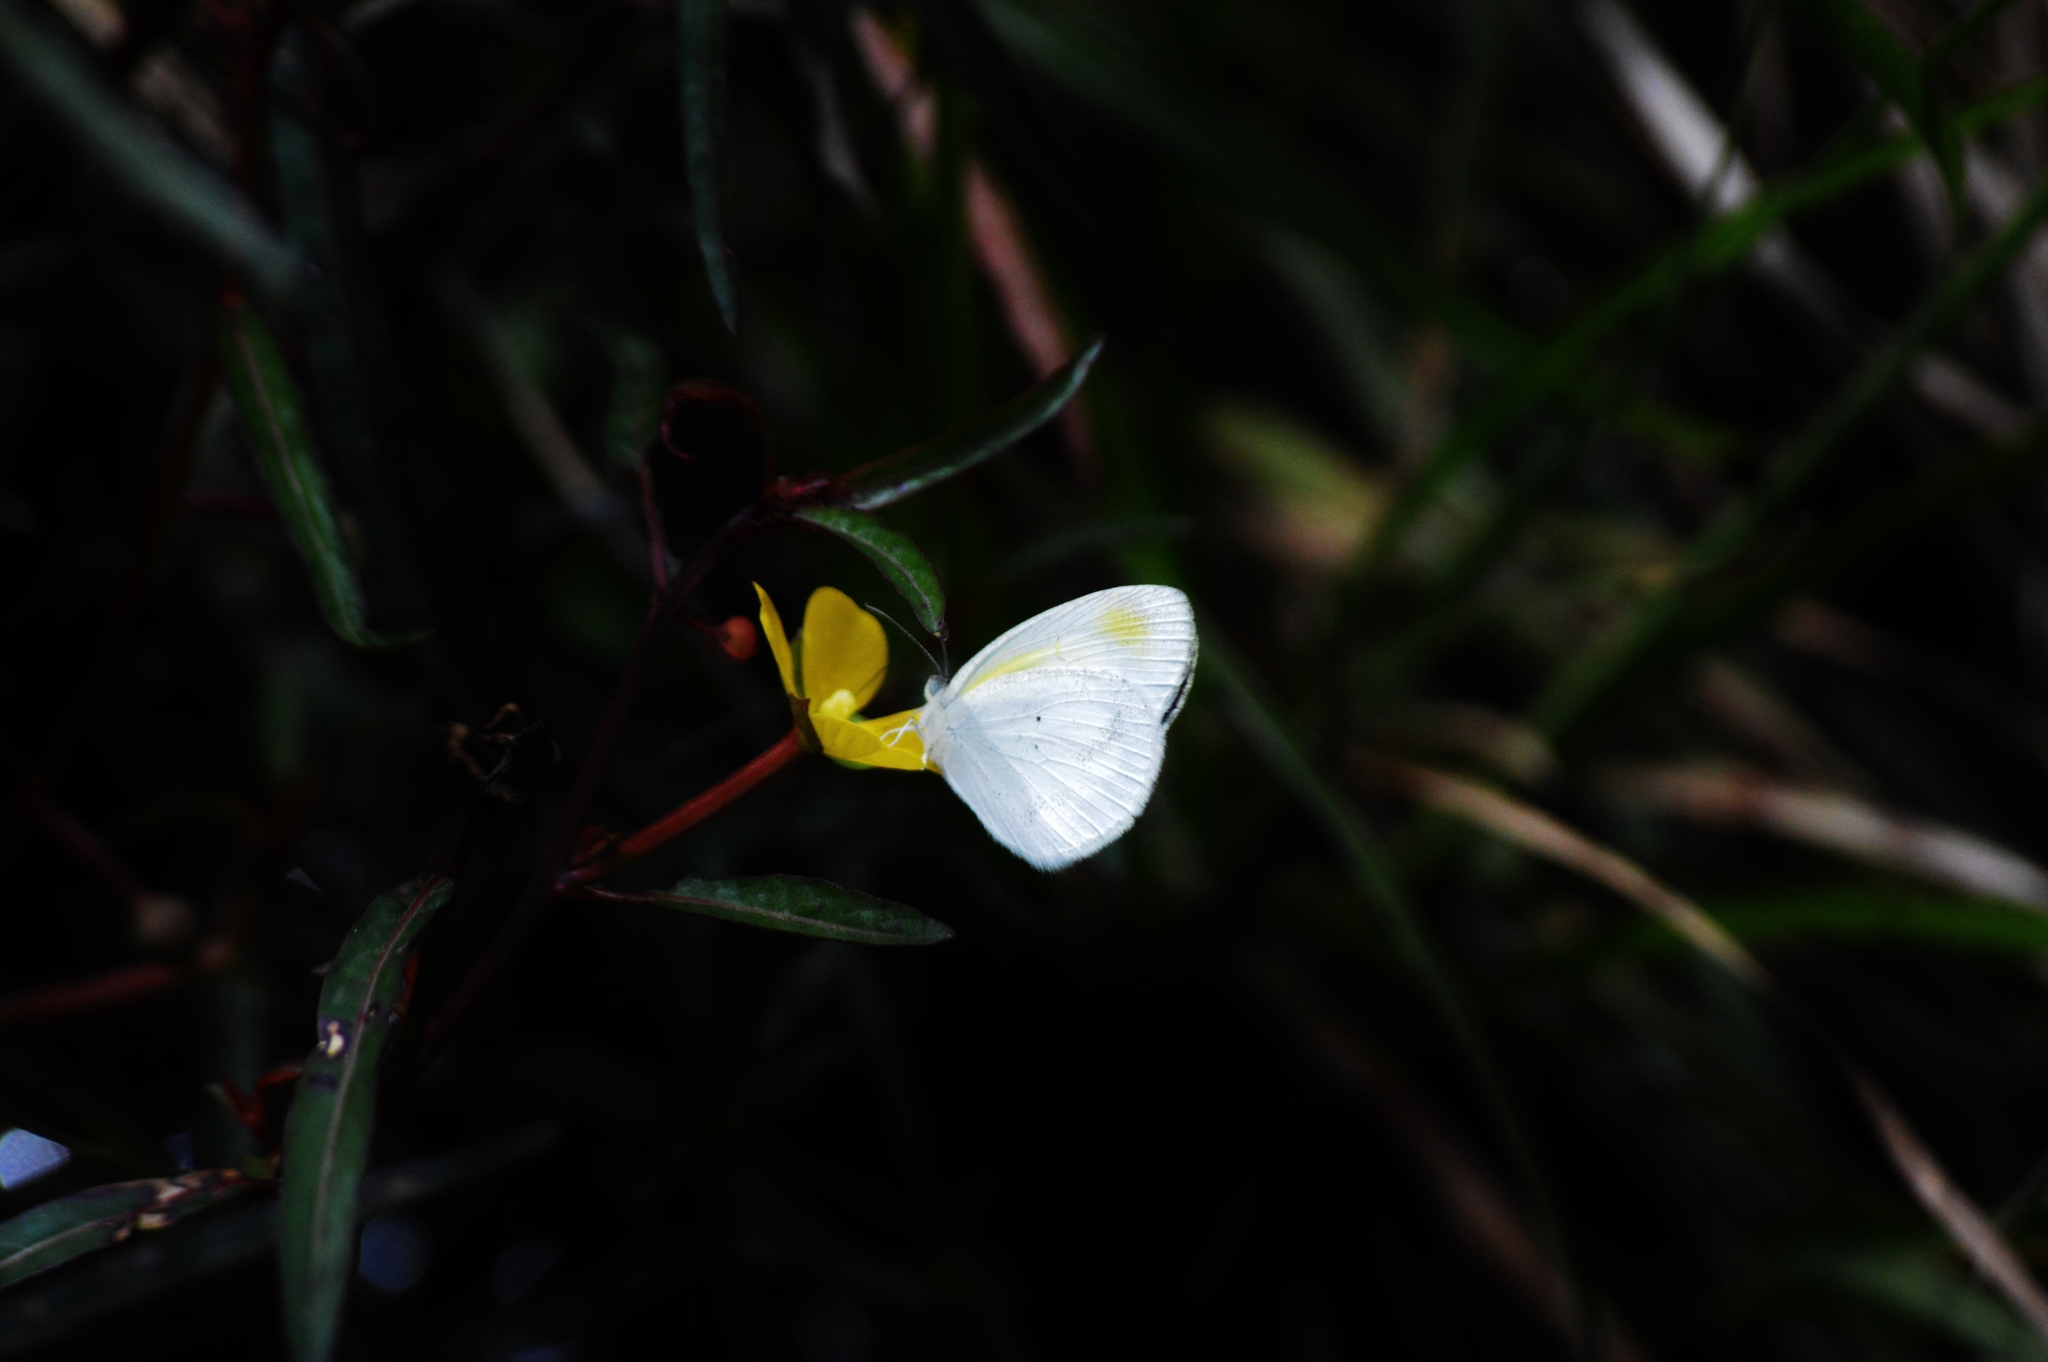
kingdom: Animalia
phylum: Arthropoda
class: Insecta
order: Lepidoptera
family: Pieridae
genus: Eurema
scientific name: Eurema elathea
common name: Banded yellow
